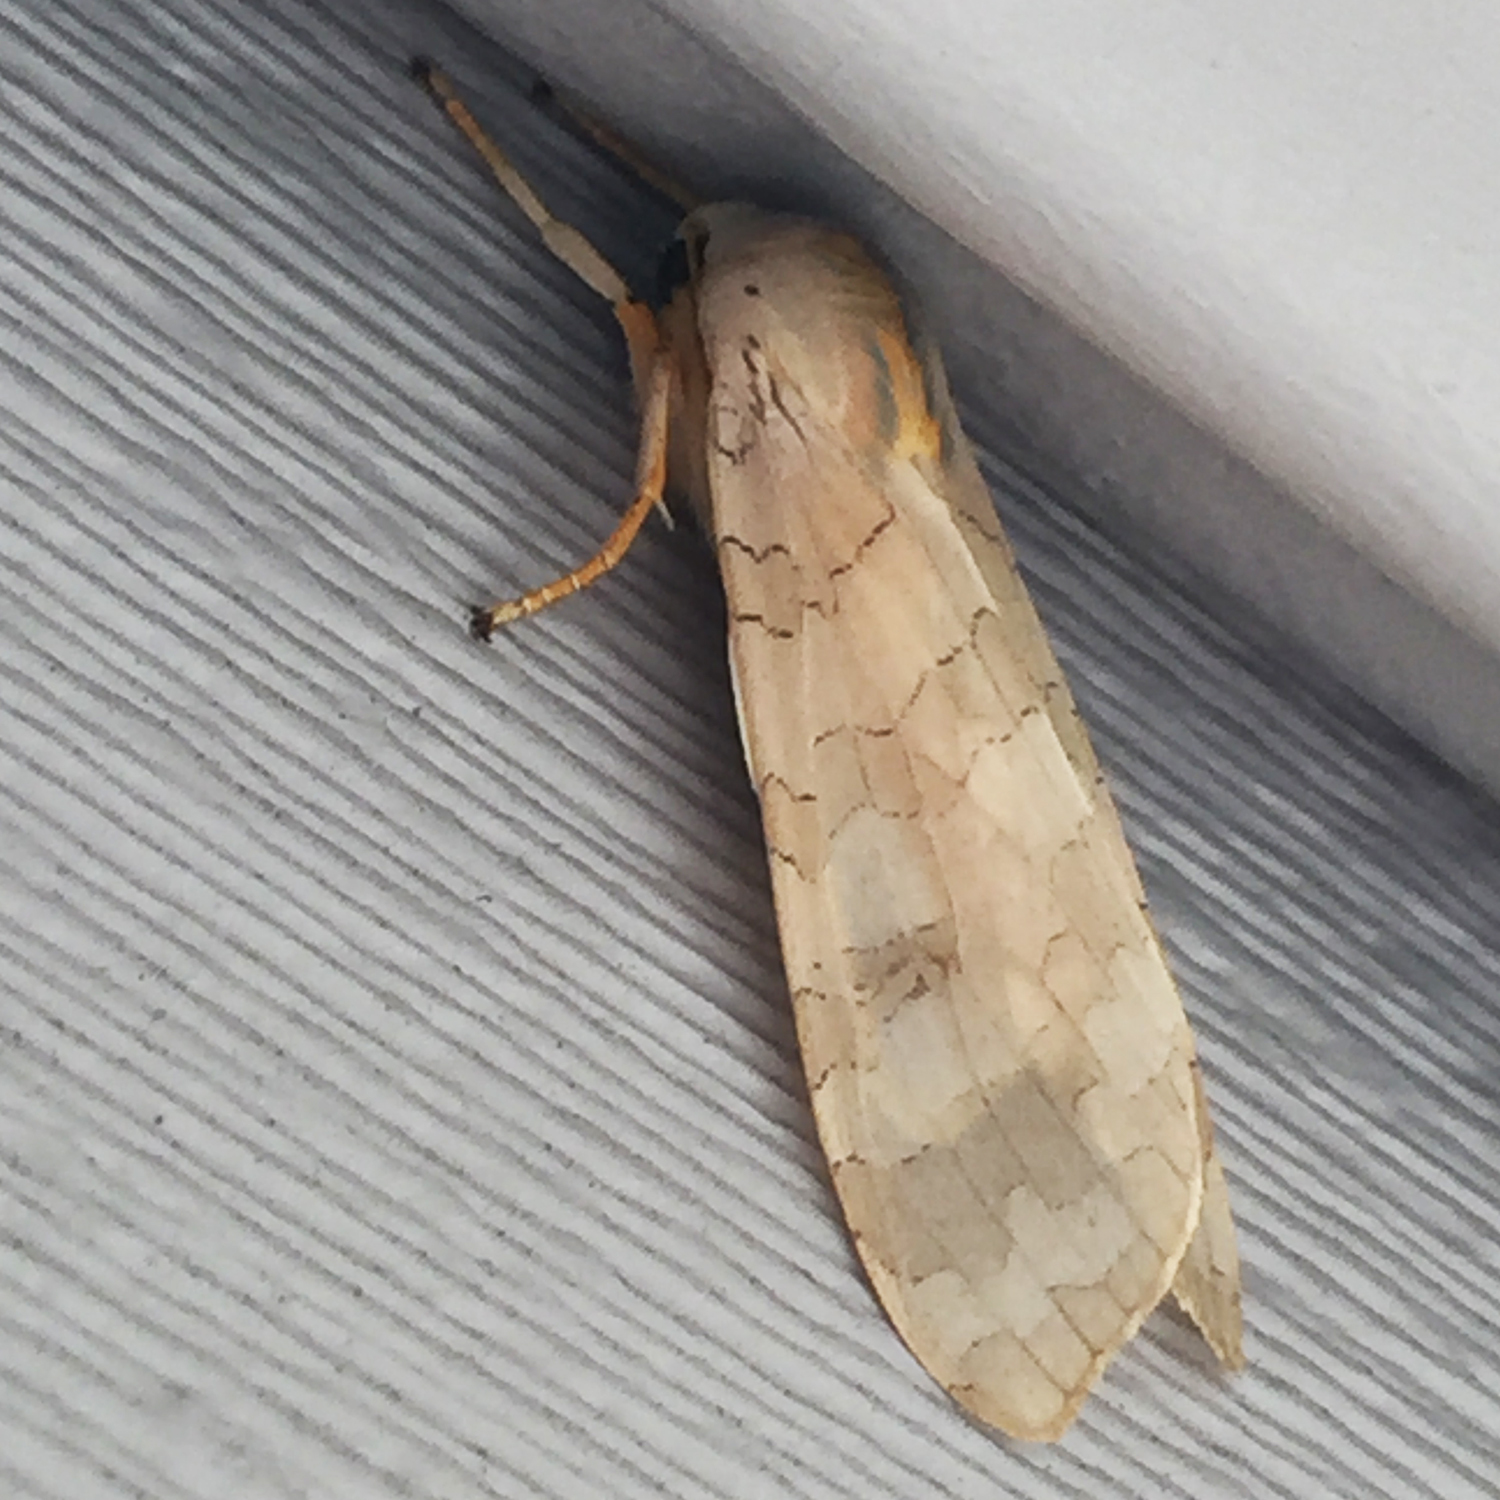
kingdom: Animalia
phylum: Arthropoda
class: Insecta
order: Lepidoptera
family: Erebidae
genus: Halysidota
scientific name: Halysidota
